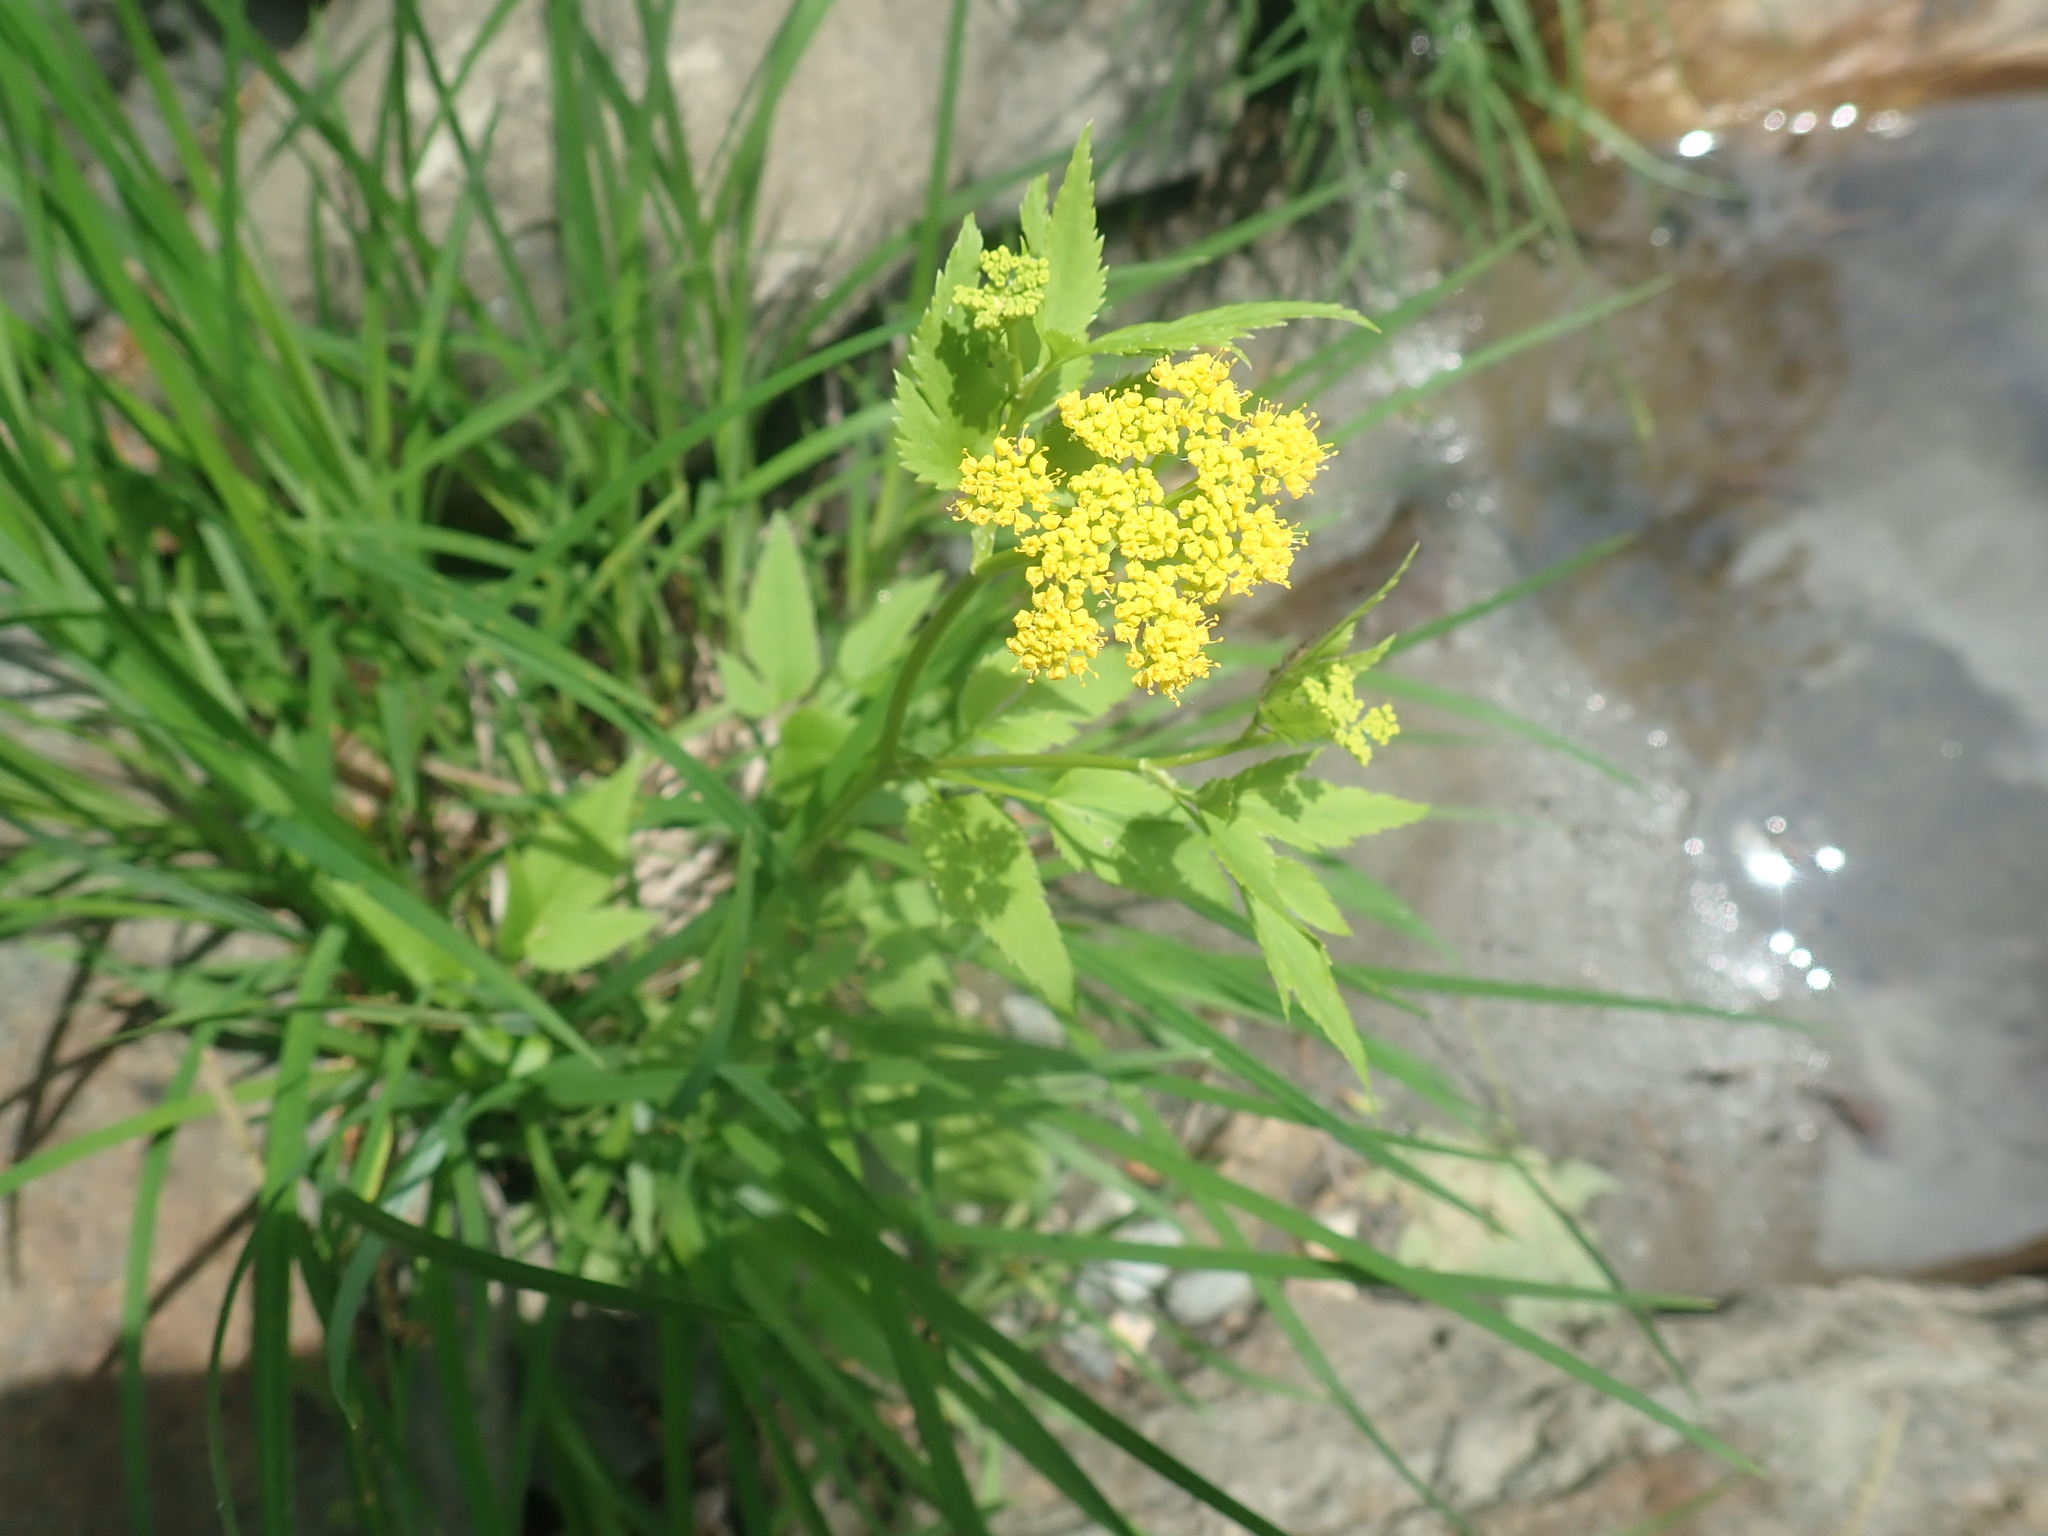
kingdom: Plantae
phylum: Tracheophyta
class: Magnoliopsida
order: Apiales
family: Apiaceae
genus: Zizia
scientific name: Zizia aurea
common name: Golden alexanders
